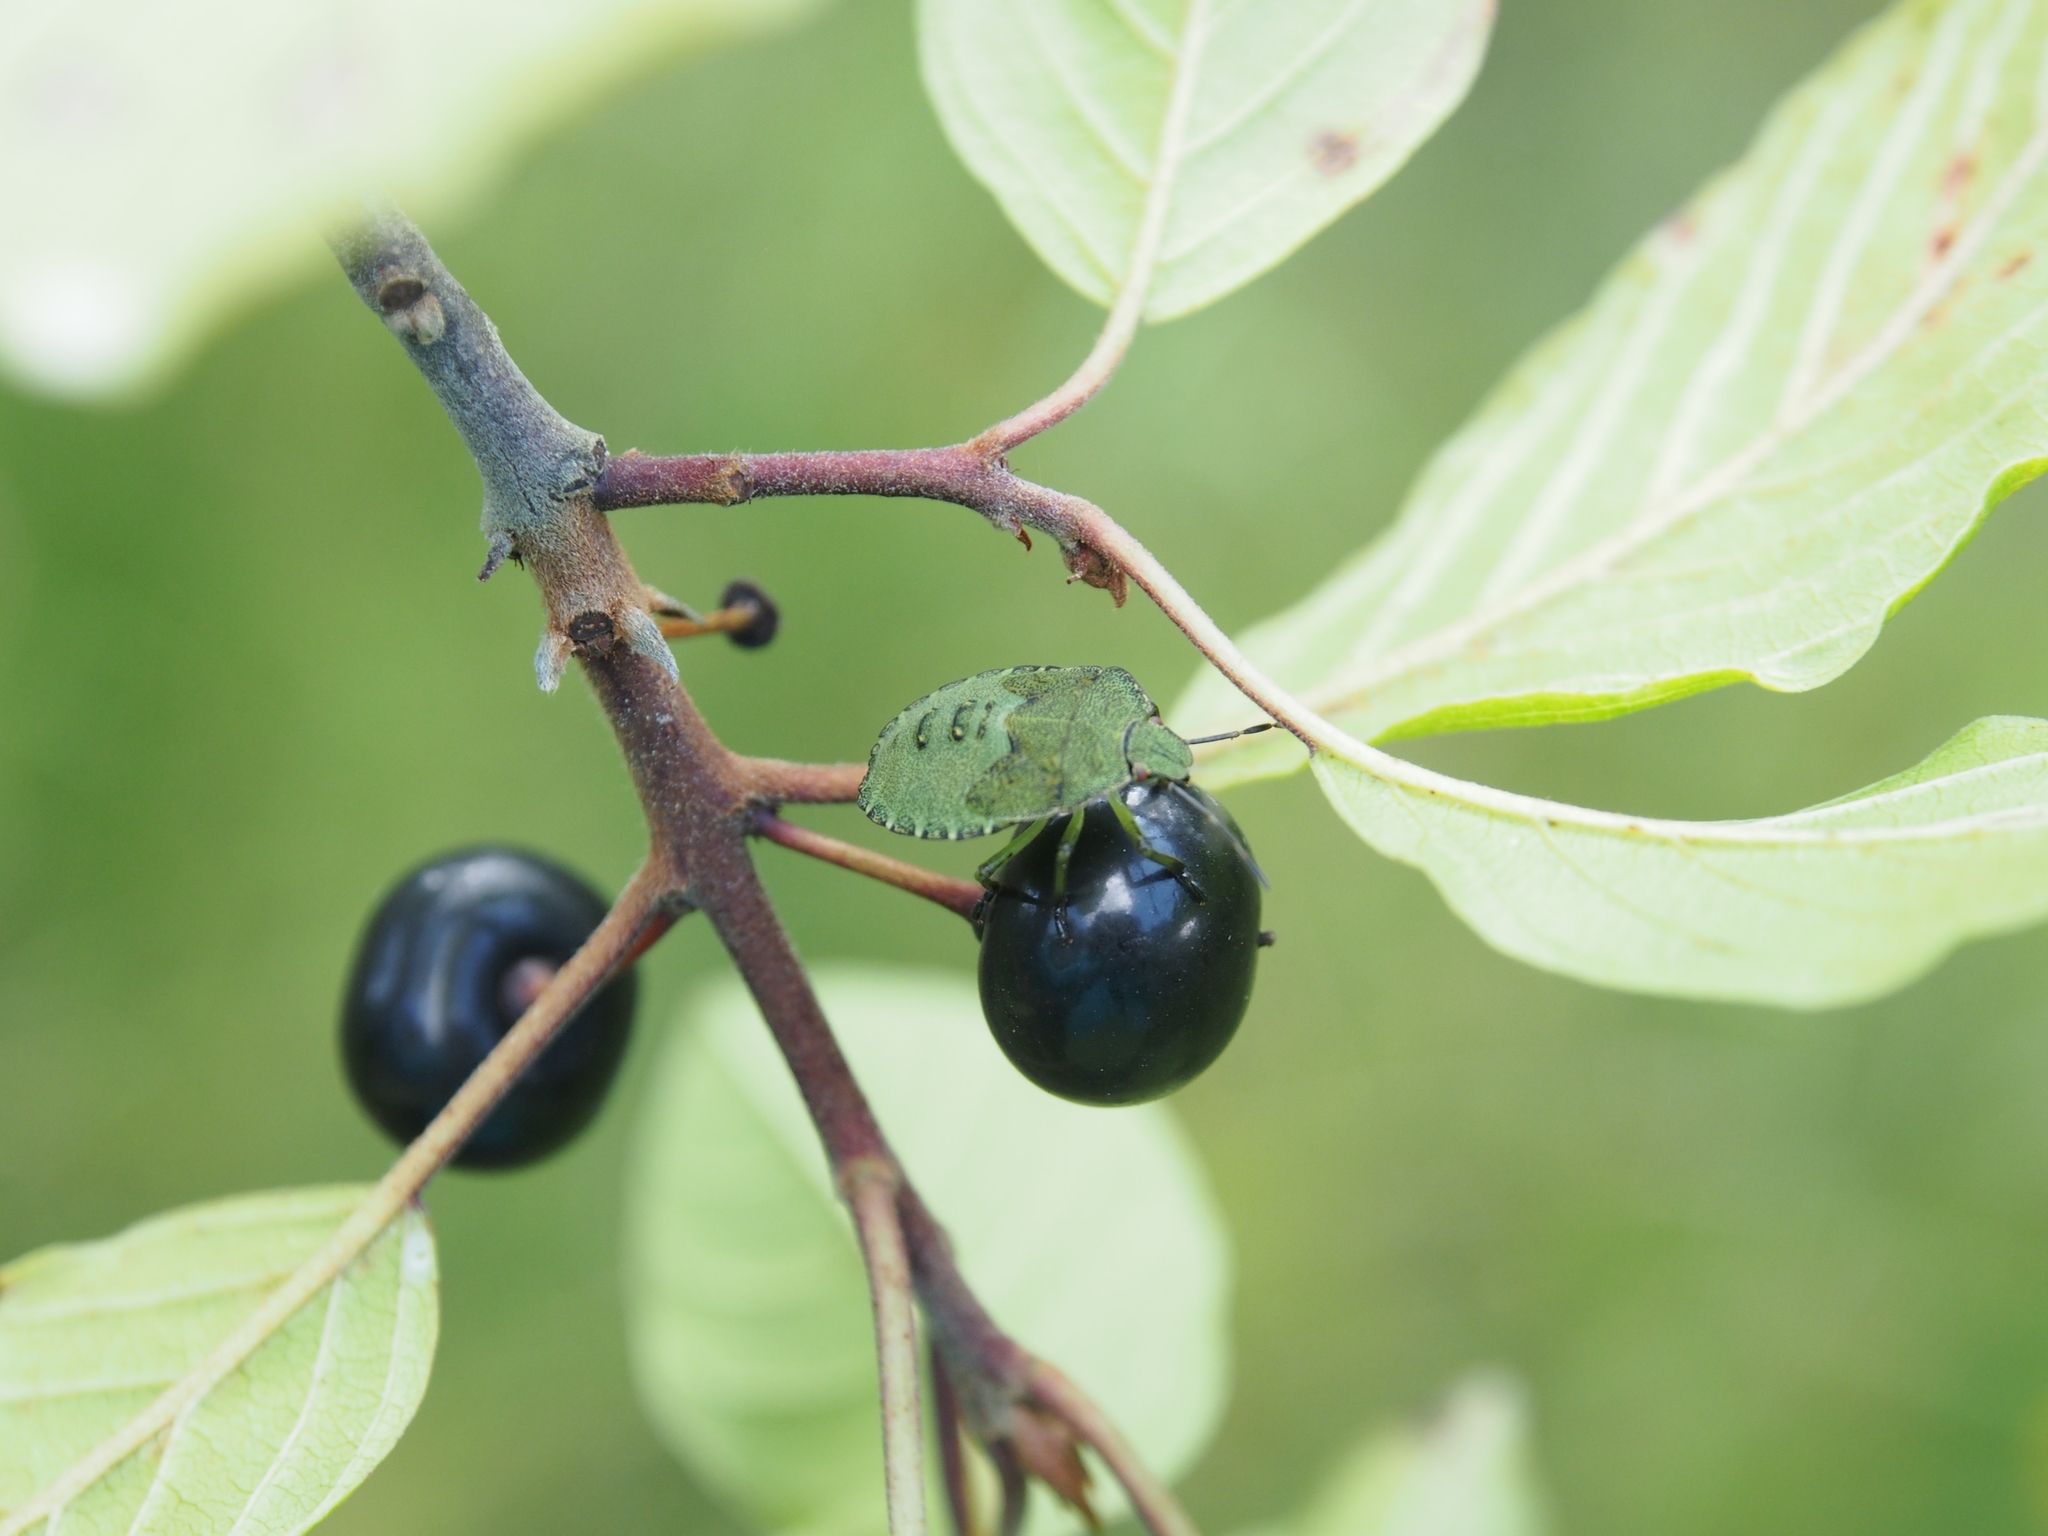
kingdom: Plantae
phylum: Tracheophyta
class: Magnoliopsida
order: Rosales
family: Rhamnaceae
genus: Frangula
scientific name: Frangula alnus
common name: Alder buckthorn
